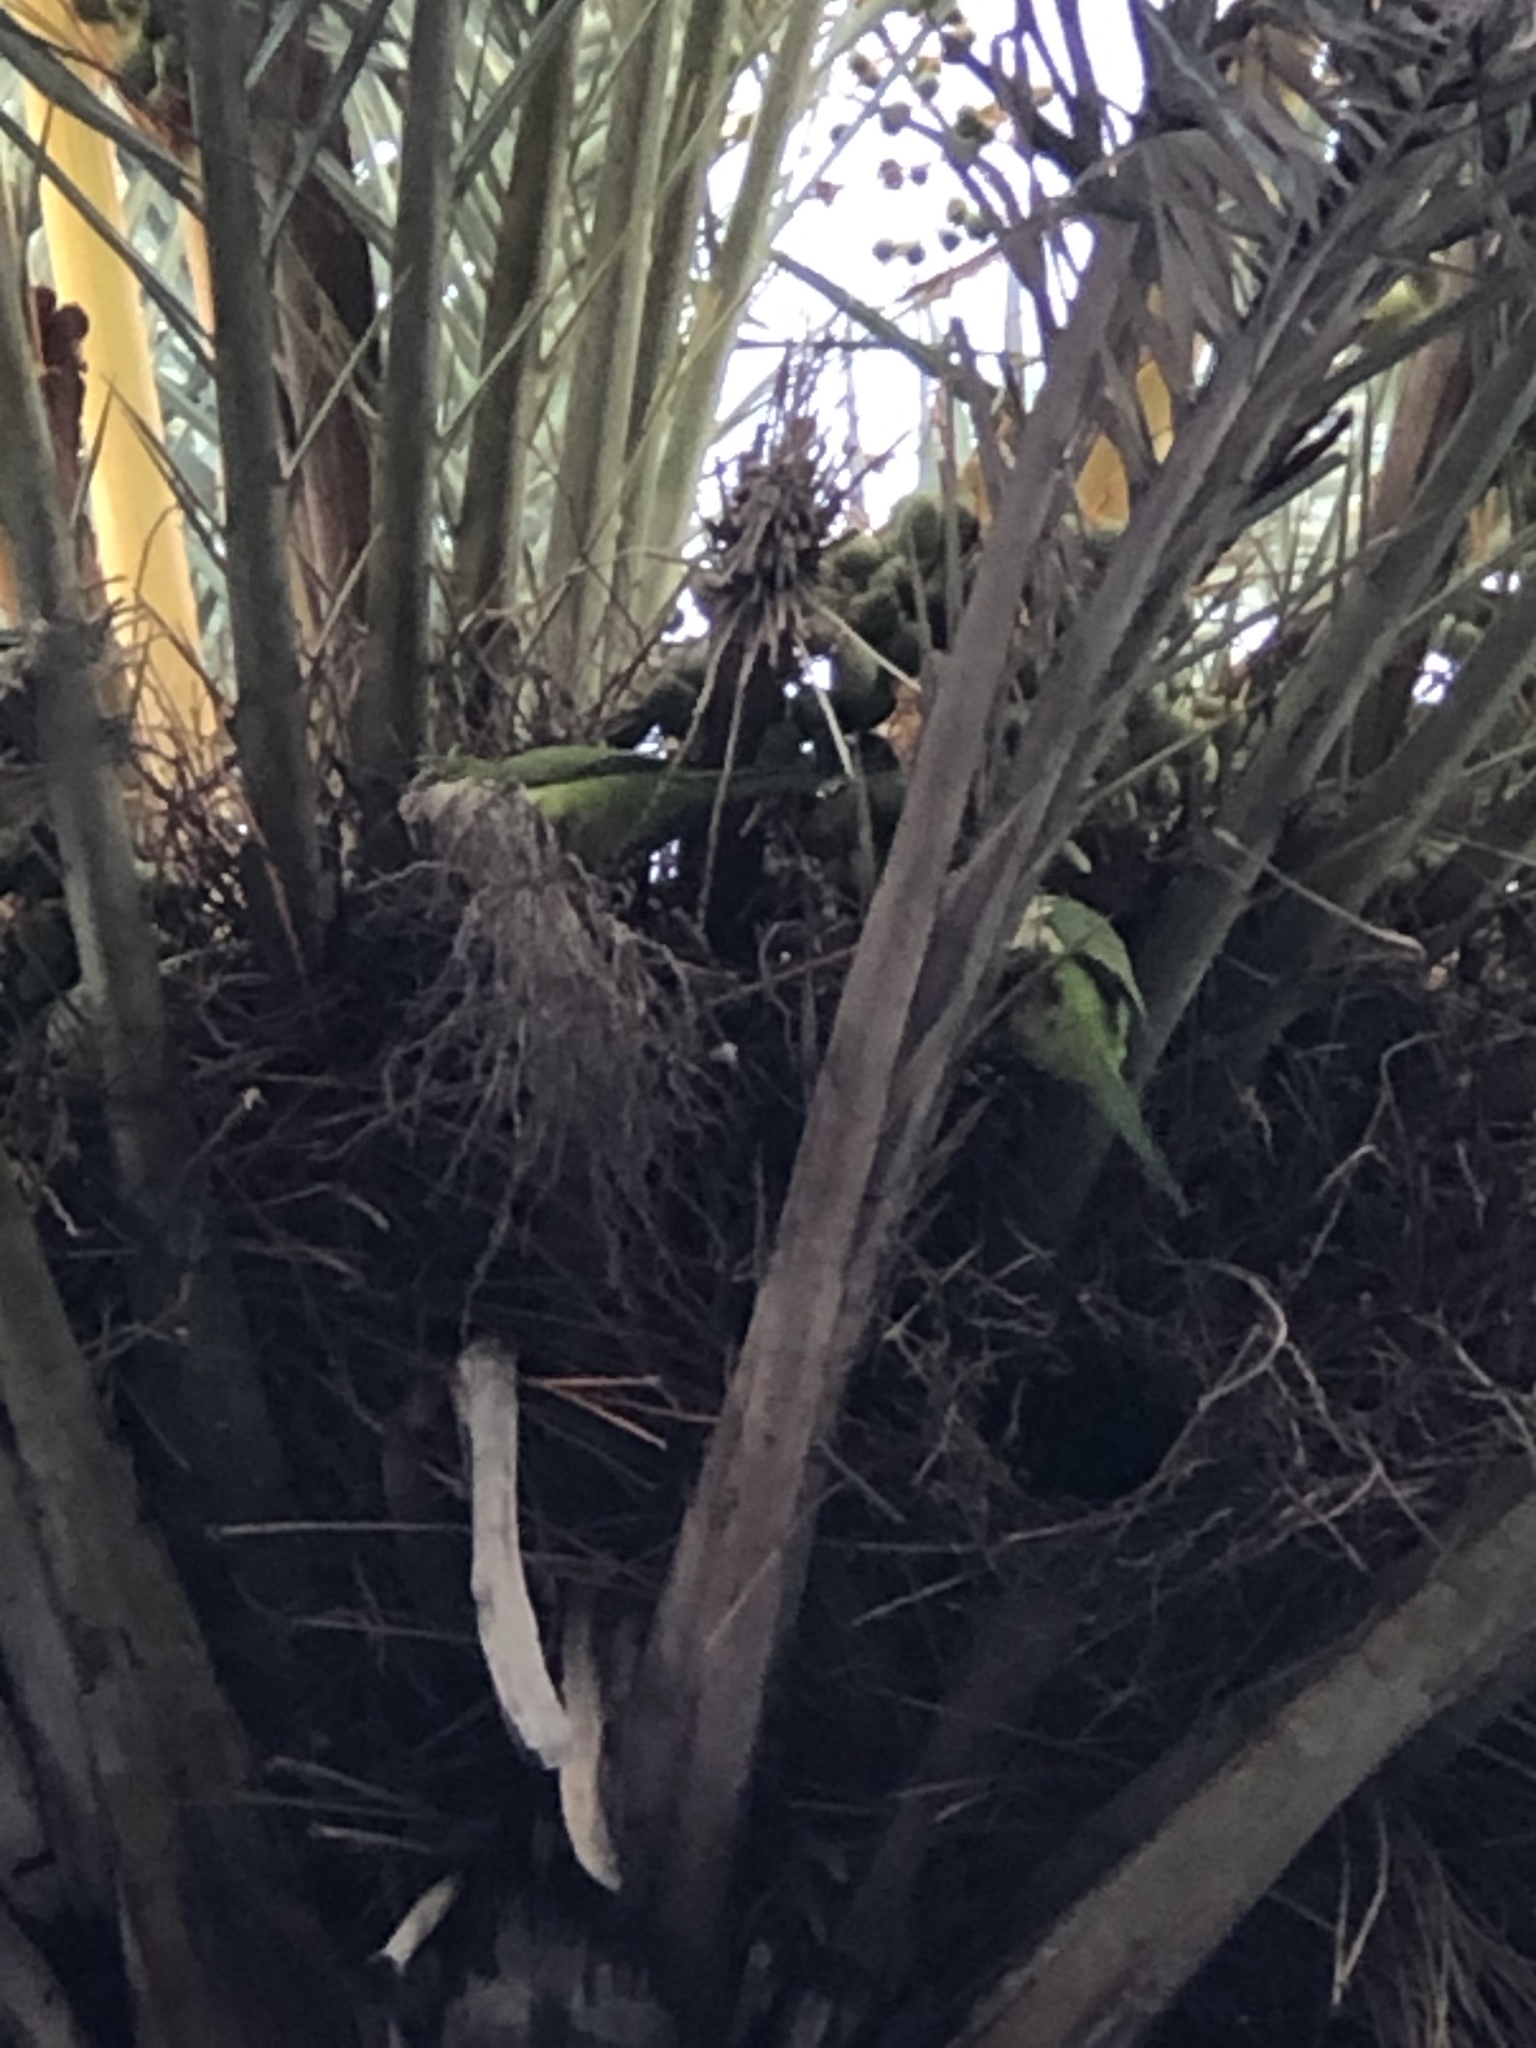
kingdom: Animalia
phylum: Chordata
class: Aves
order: Psittaciformes
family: Psittacidae
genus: Myiopsitta
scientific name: Myiopsitta monachus
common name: Monk parakeet
